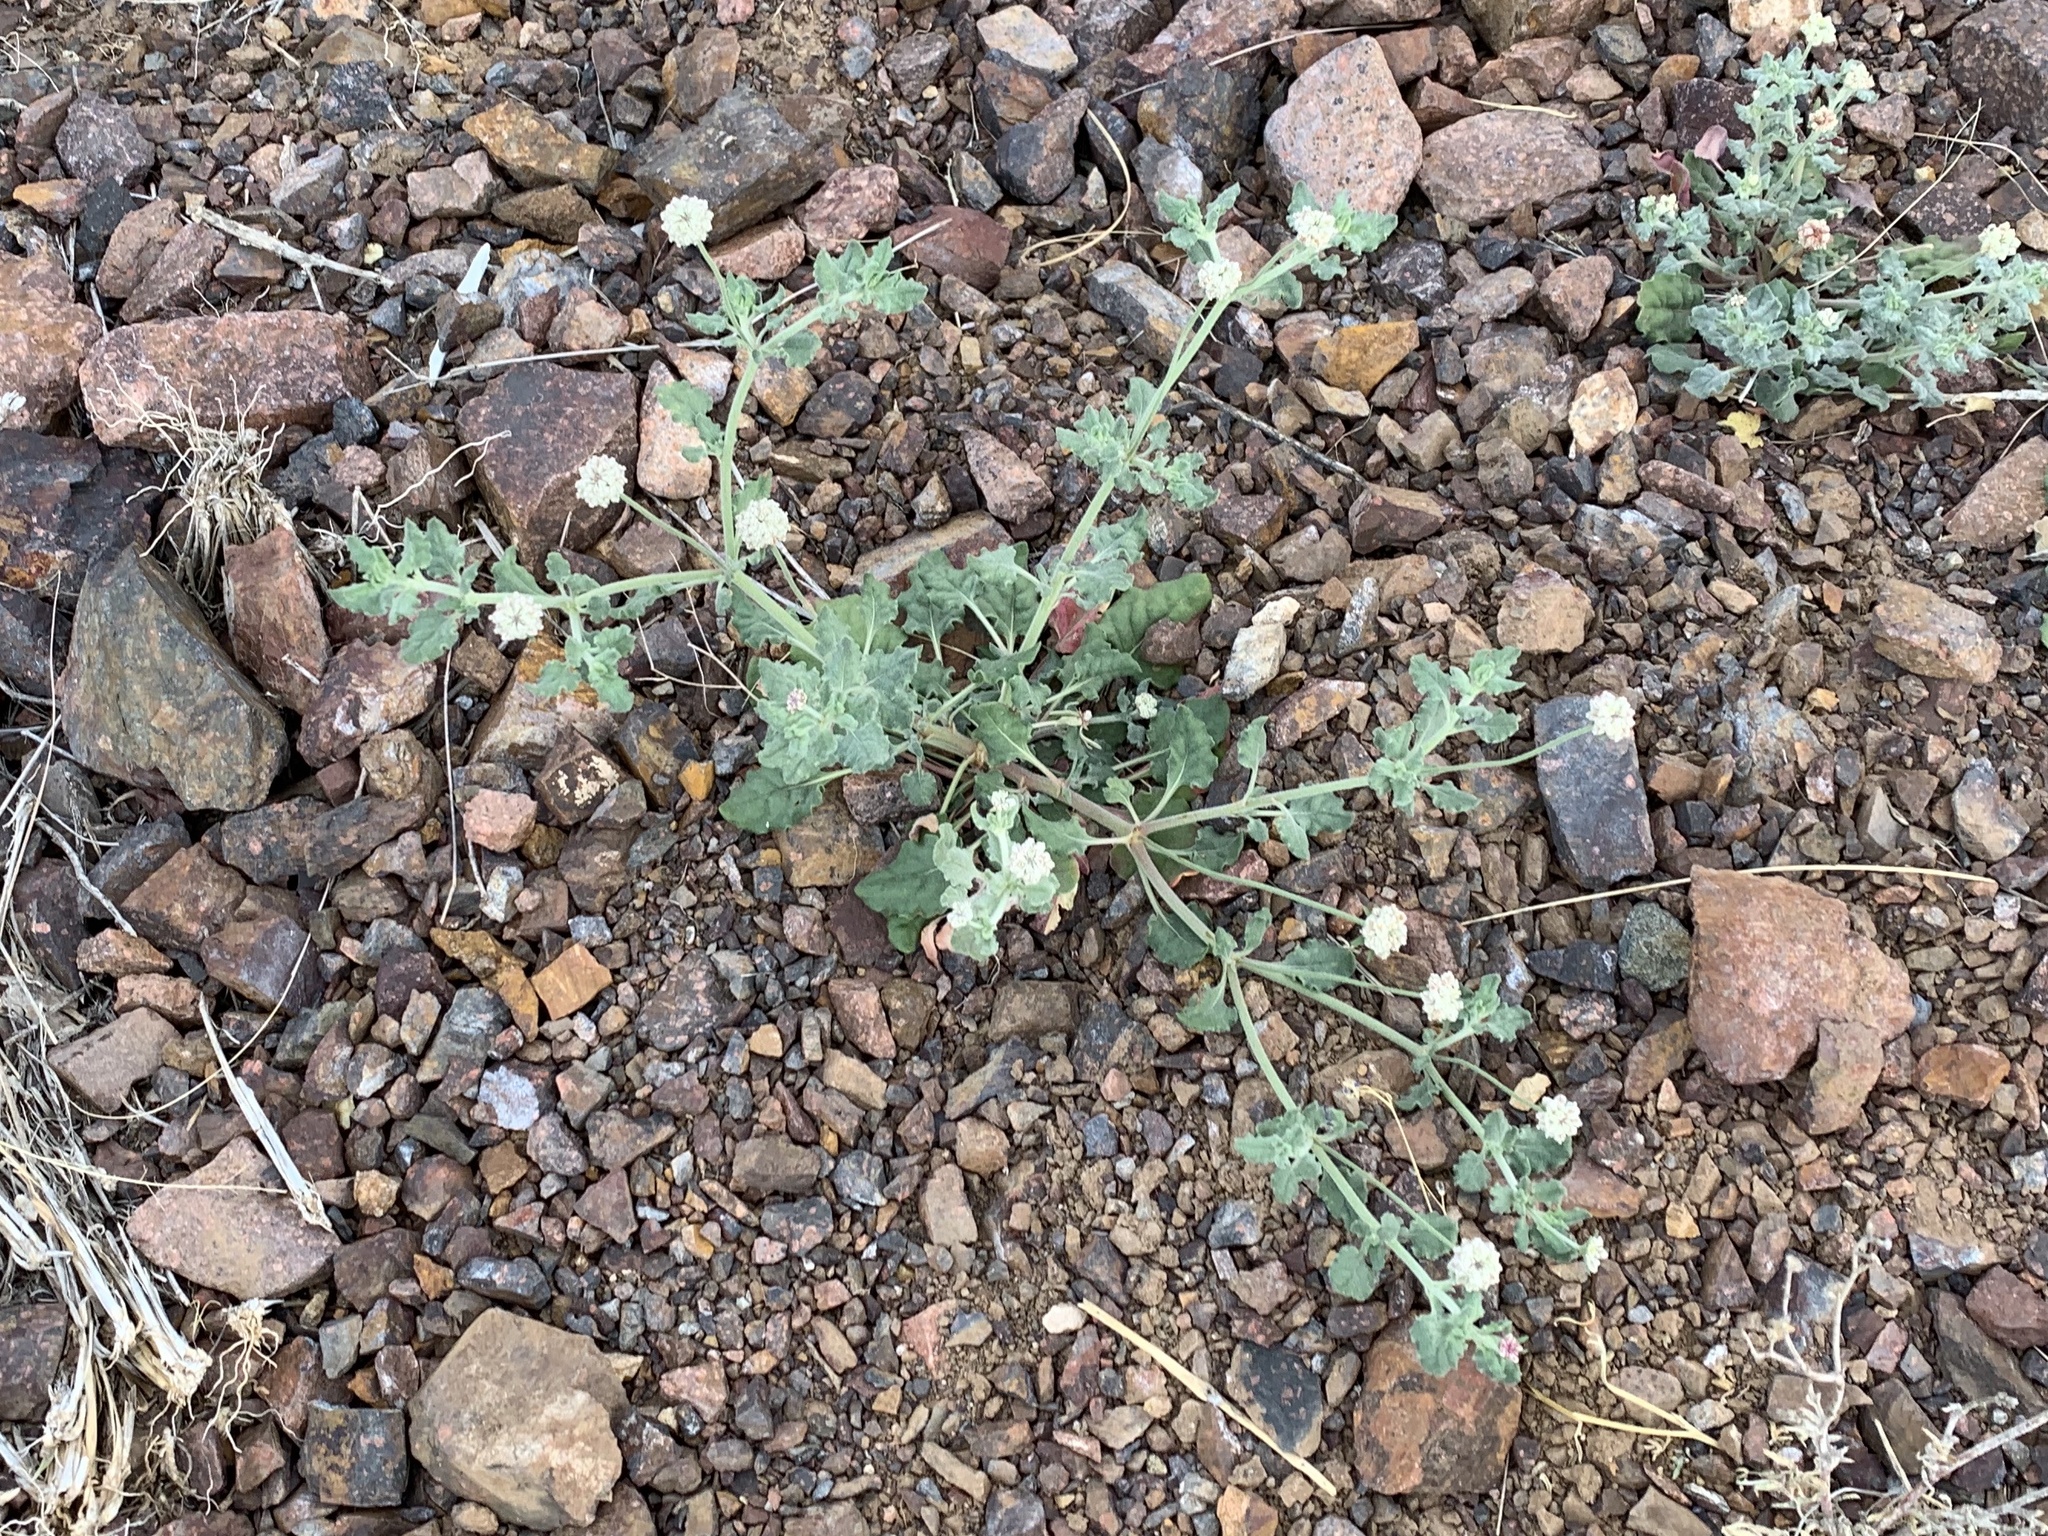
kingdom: Plantae
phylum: Tracheophyta
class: Magnoliopsida
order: Caryophyllales
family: Polygonaceae
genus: Eriogonum
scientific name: Eriogonum abertianum
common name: Abert's wild buckwheat
